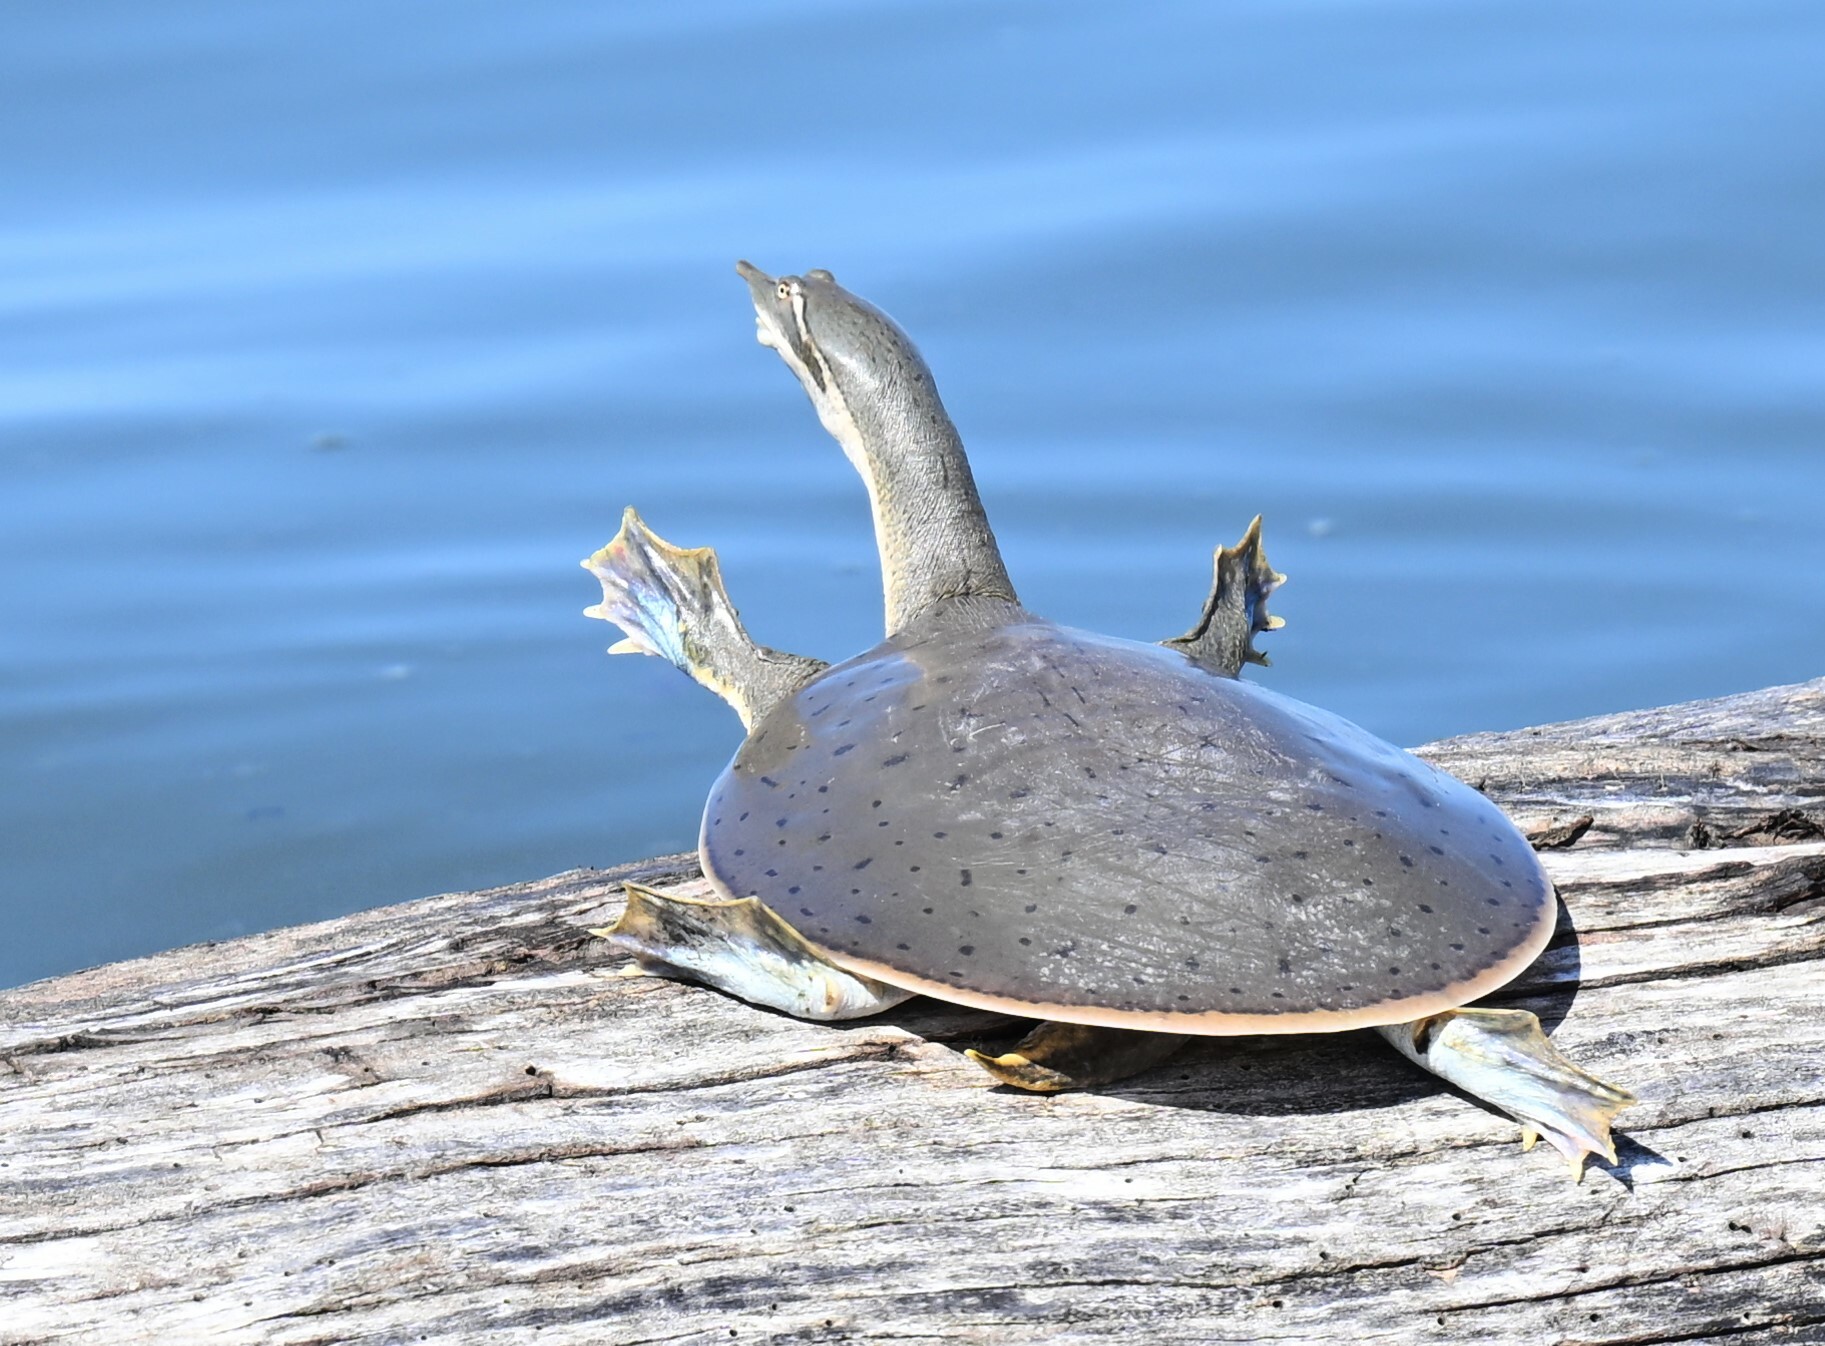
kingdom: Animalia
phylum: Chordata
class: Testudines
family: Trionychidae
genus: Apalone
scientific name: Apalone mutica
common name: Smooth softshell turtle
